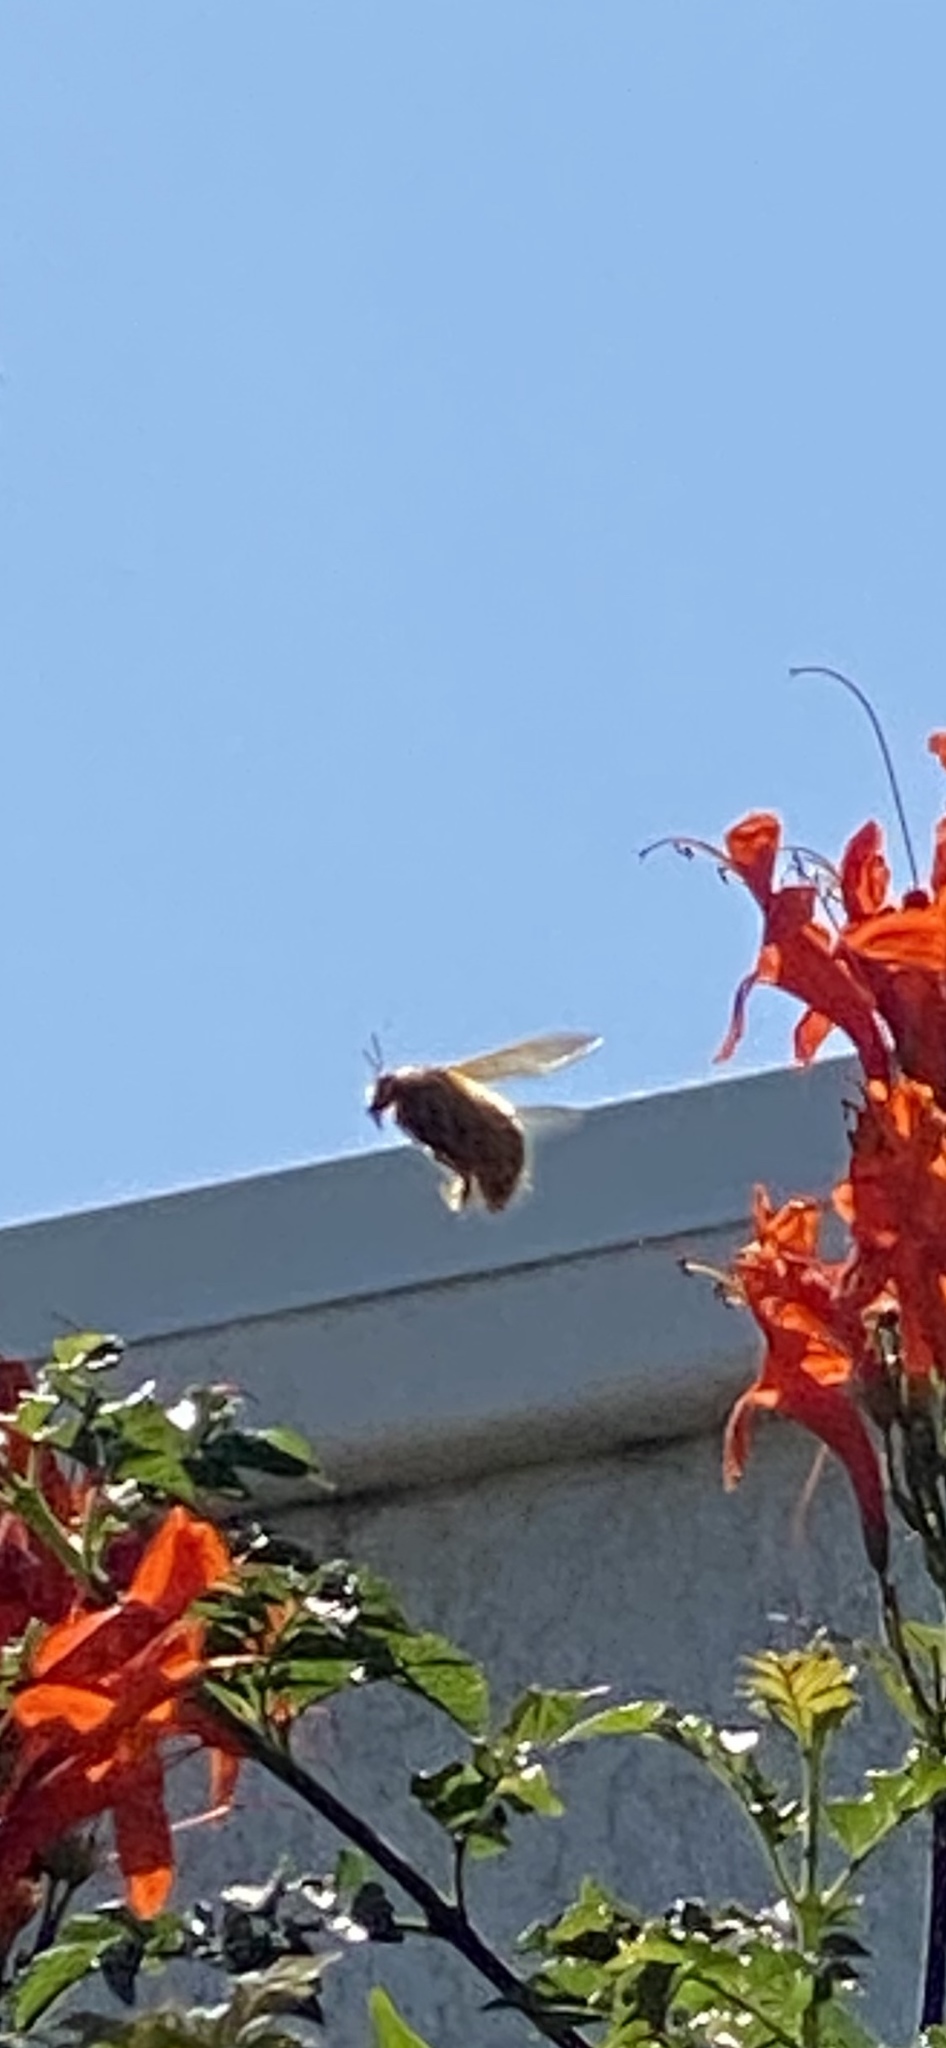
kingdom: Animalia
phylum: Arthropoda
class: Insecta
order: Hymenoptera
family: Apidae
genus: Xylocopa
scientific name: Xylocopa sonorina
